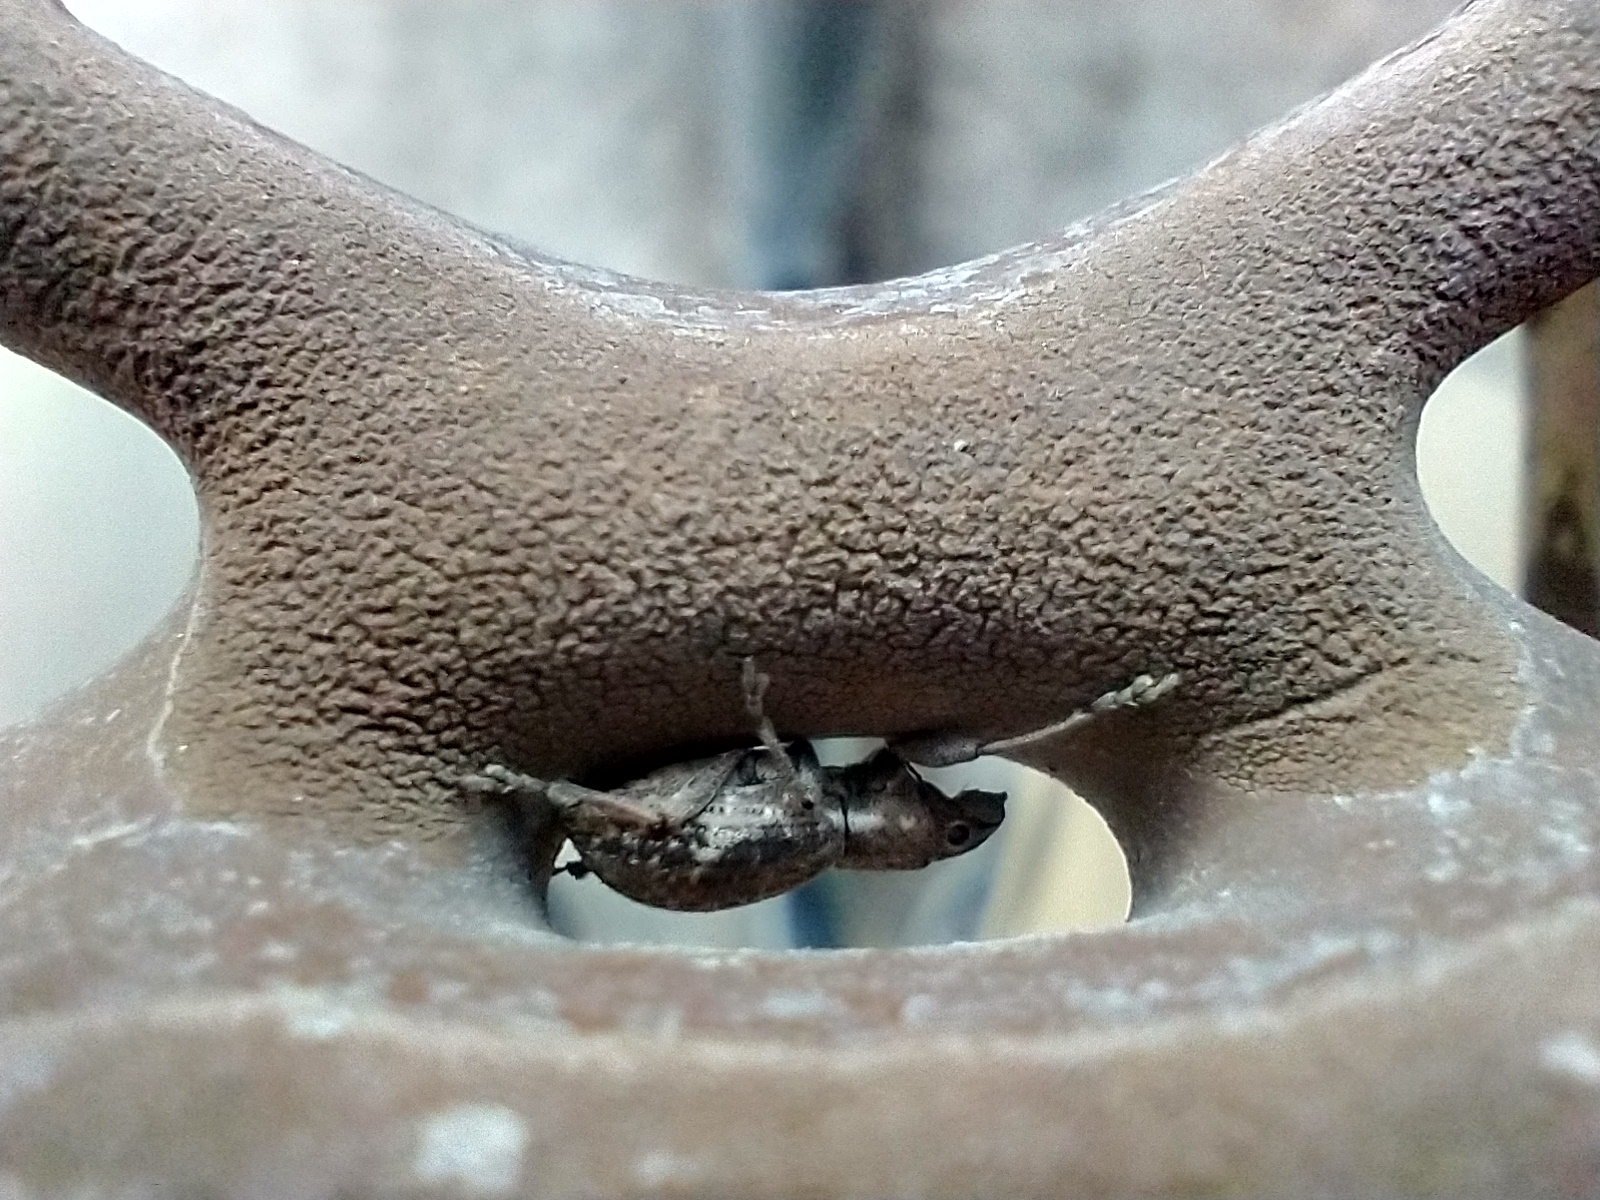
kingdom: Animalia
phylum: Arthropoda
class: Insecta
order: Coleoptera
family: Curculionidae
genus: Naupactus
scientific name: Naupactus cervinus
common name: Fuller rose beetle
